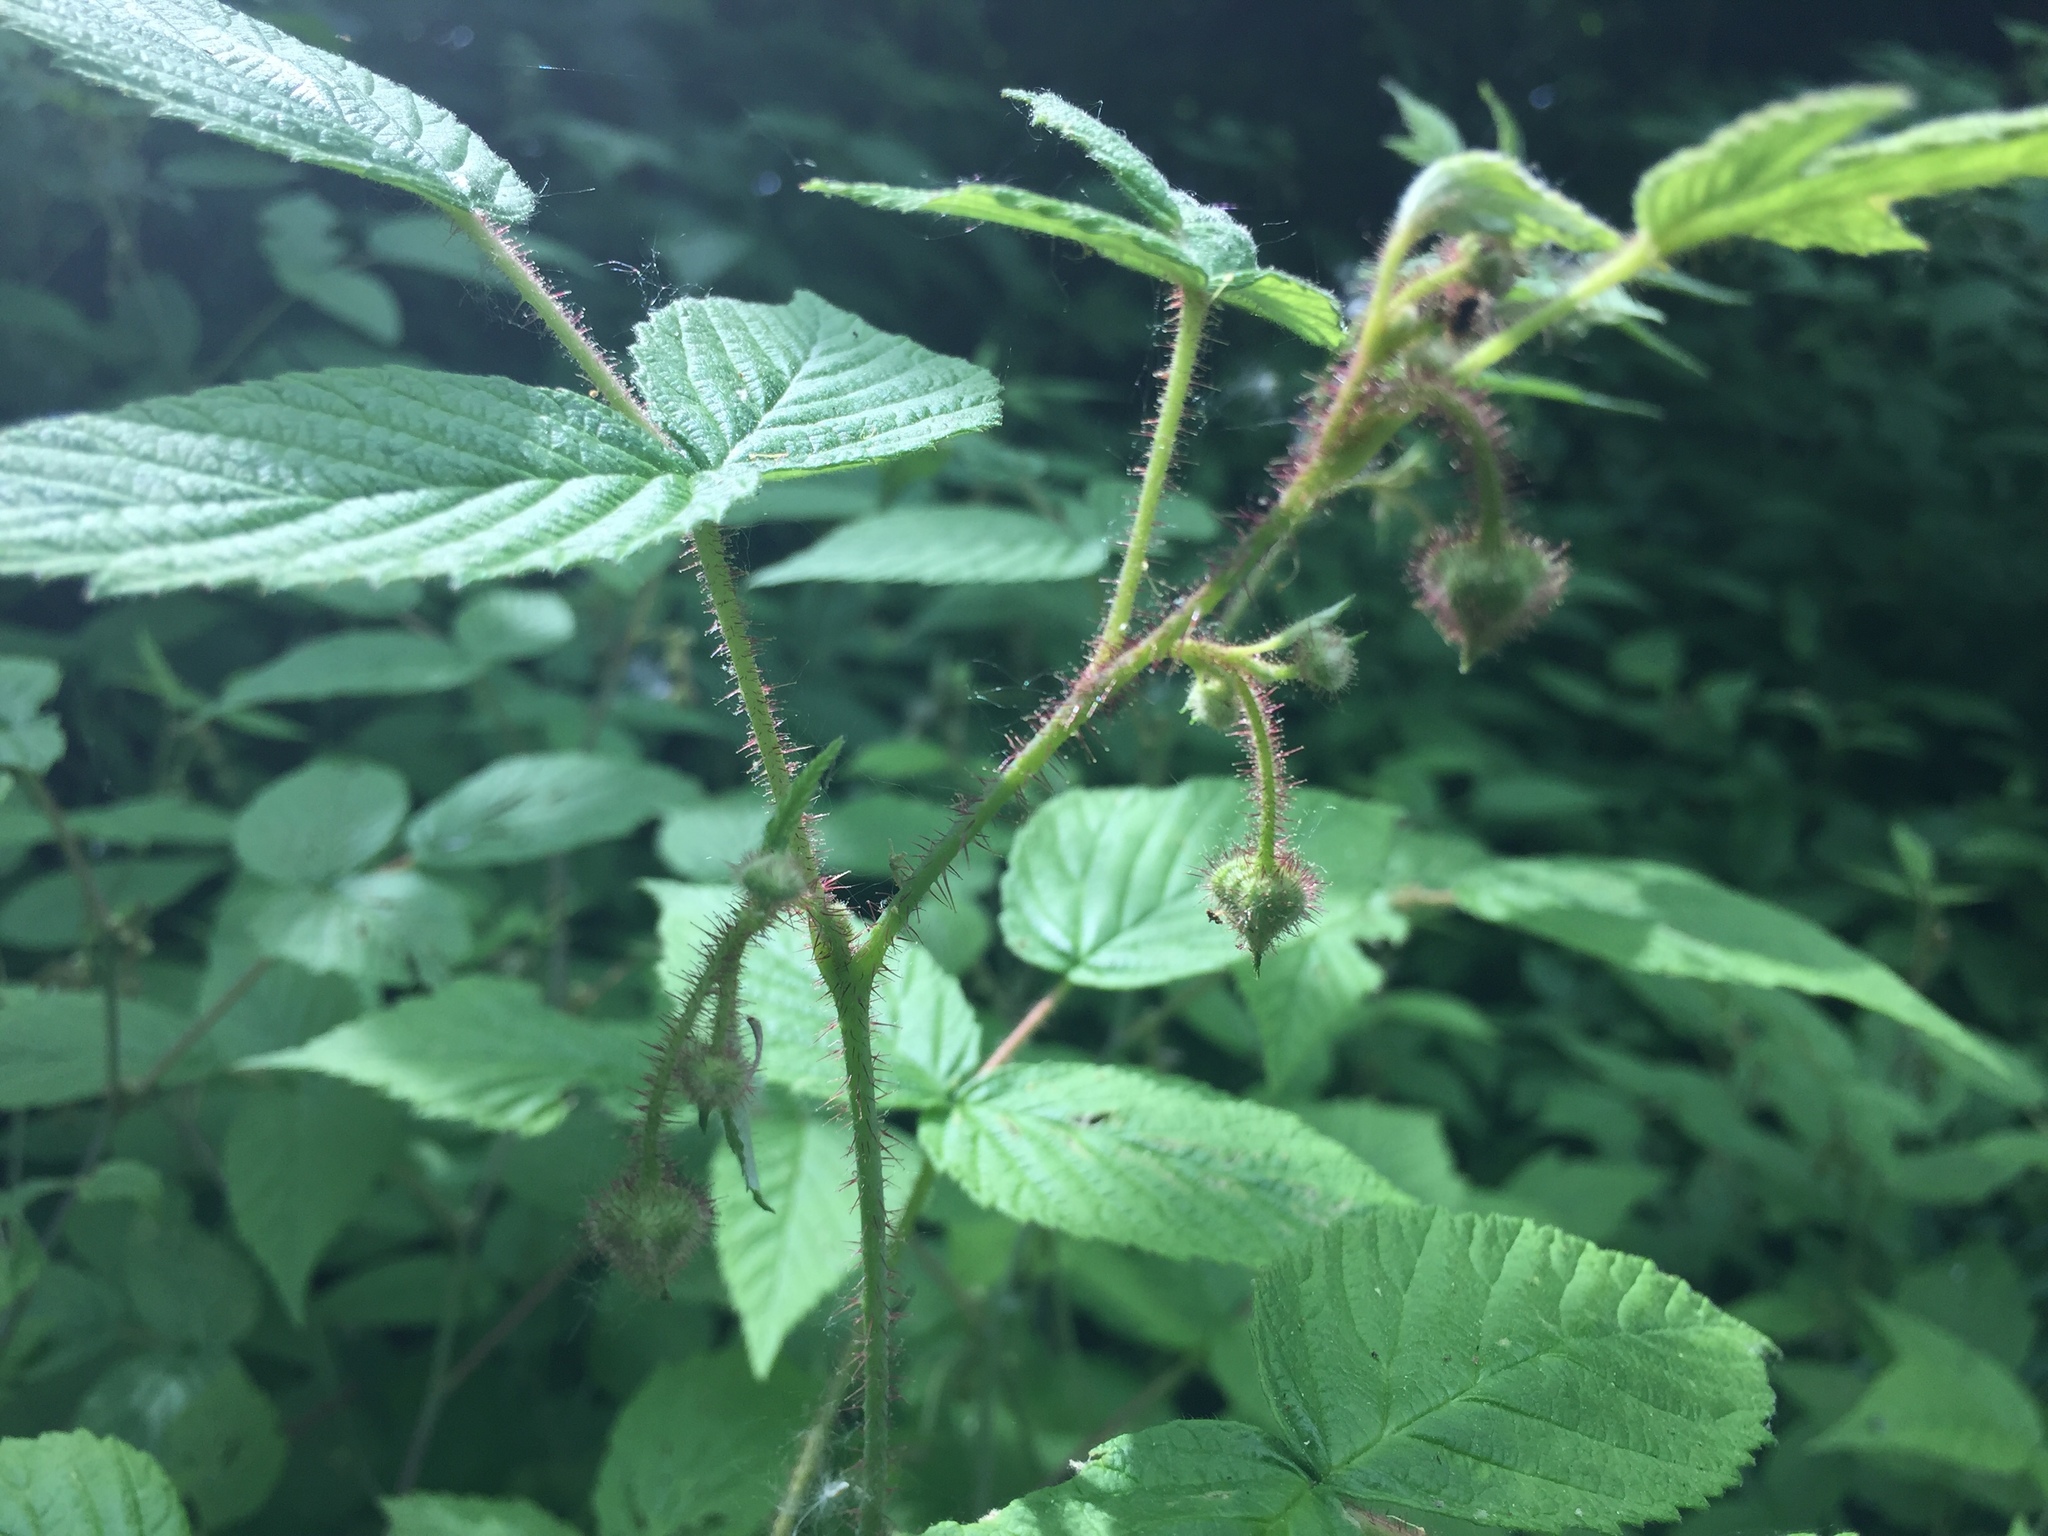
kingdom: Plantae
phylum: Tracheophyta
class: Magnoliopsida
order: Rosales
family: Rosaceae
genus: Rubus
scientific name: Rubus idaeus
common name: Raspberry
